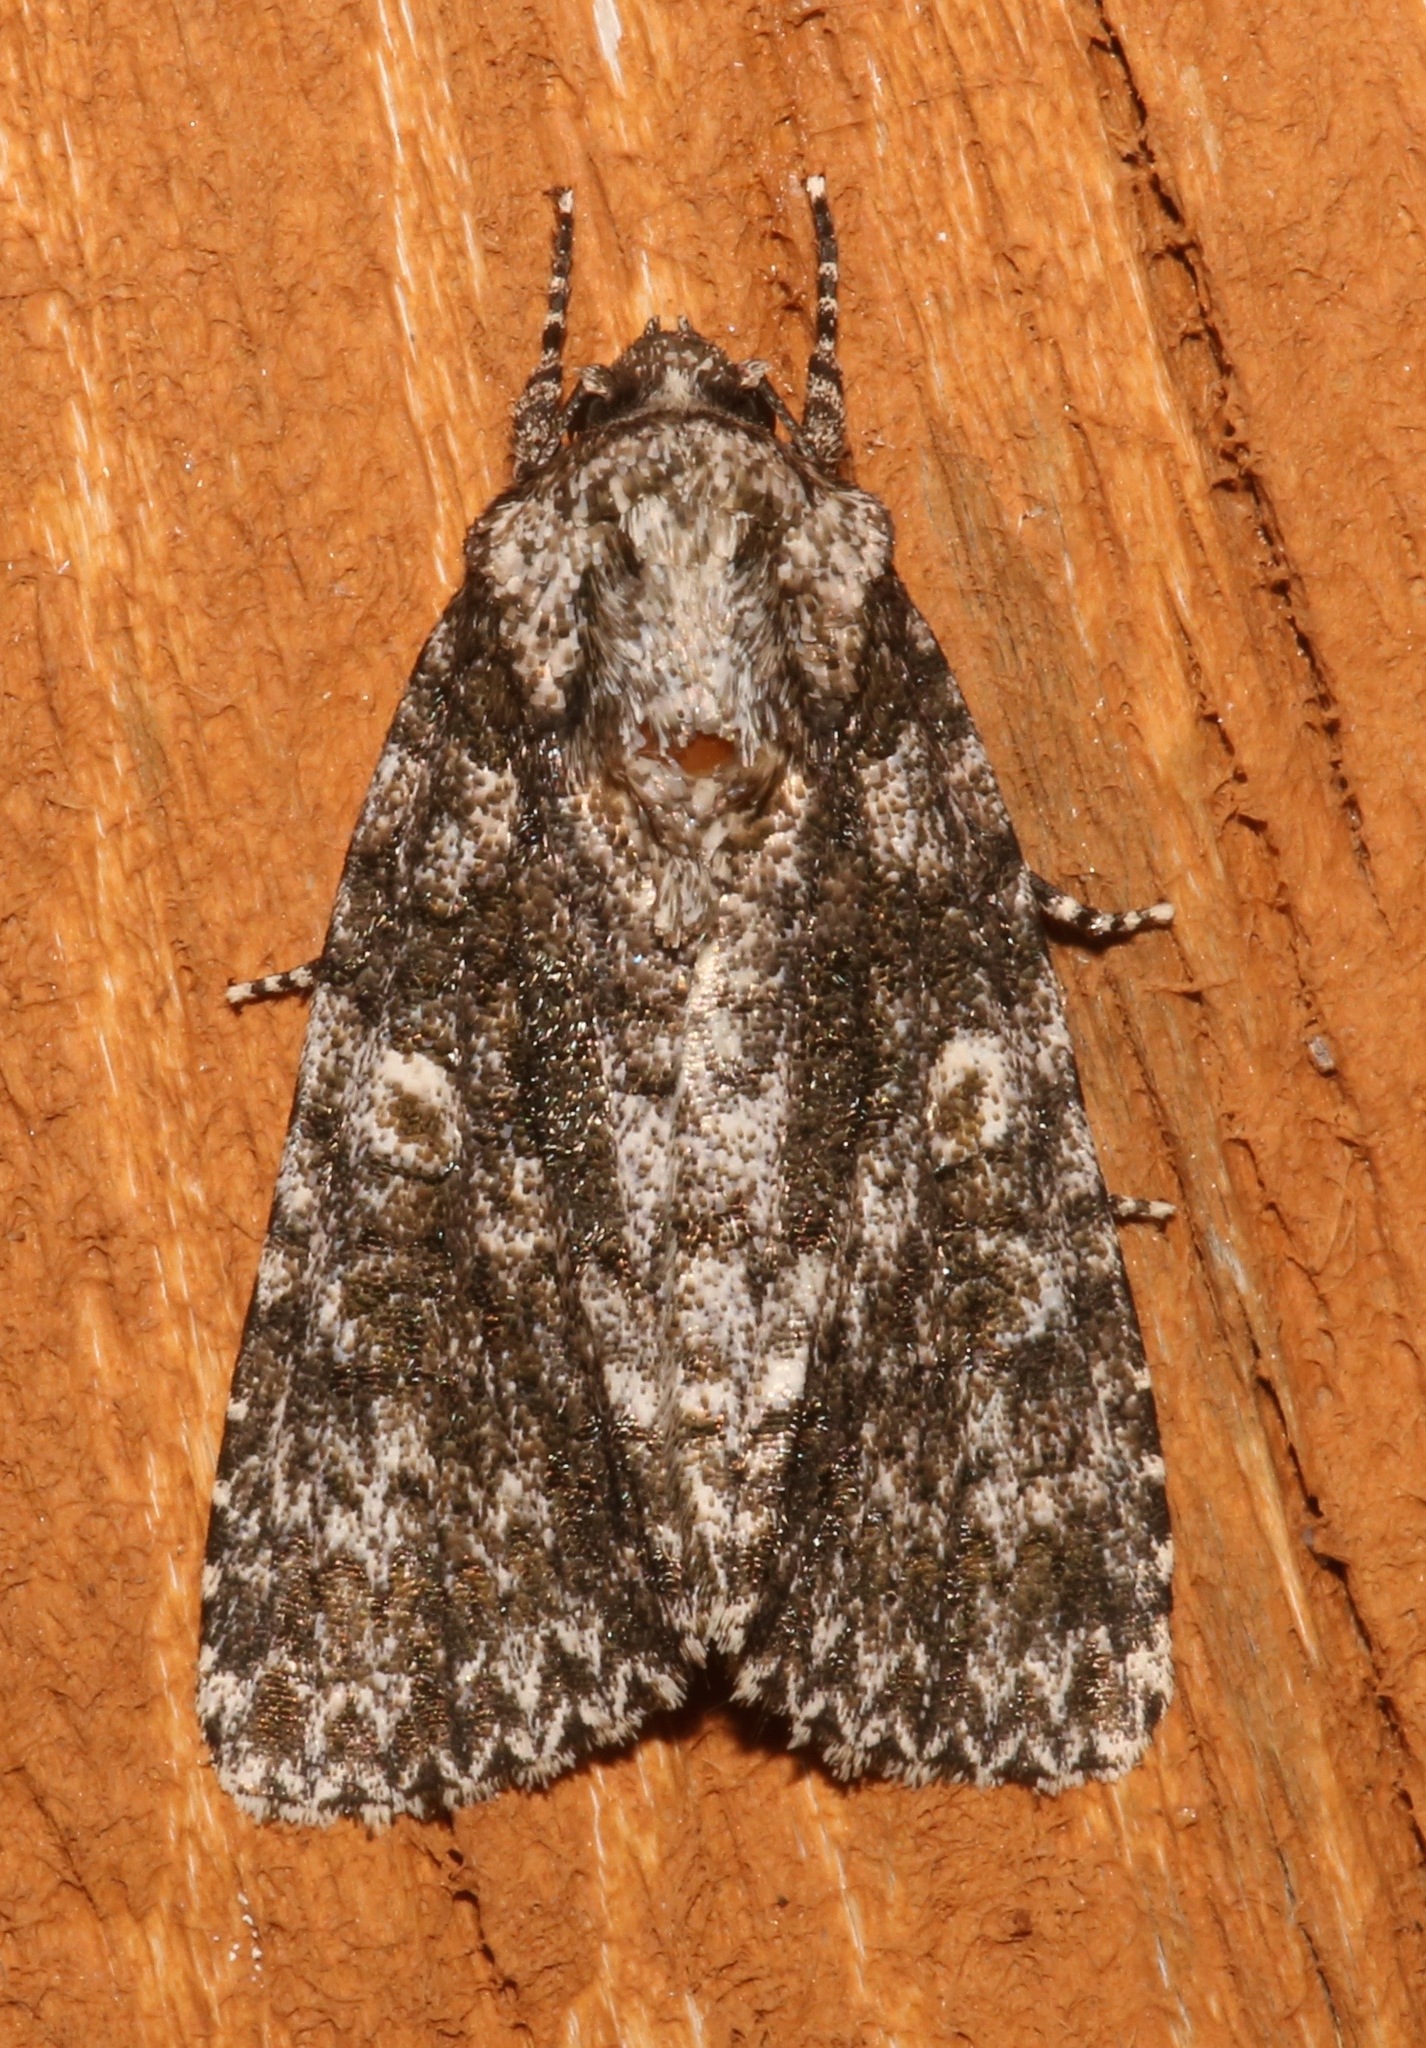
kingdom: Animalia
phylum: Arthropoda
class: Insecta
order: Lepidoptera
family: Noctuidae
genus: Acronicta
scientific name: Acronicta afflicta
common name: Afflicted dagger moth
